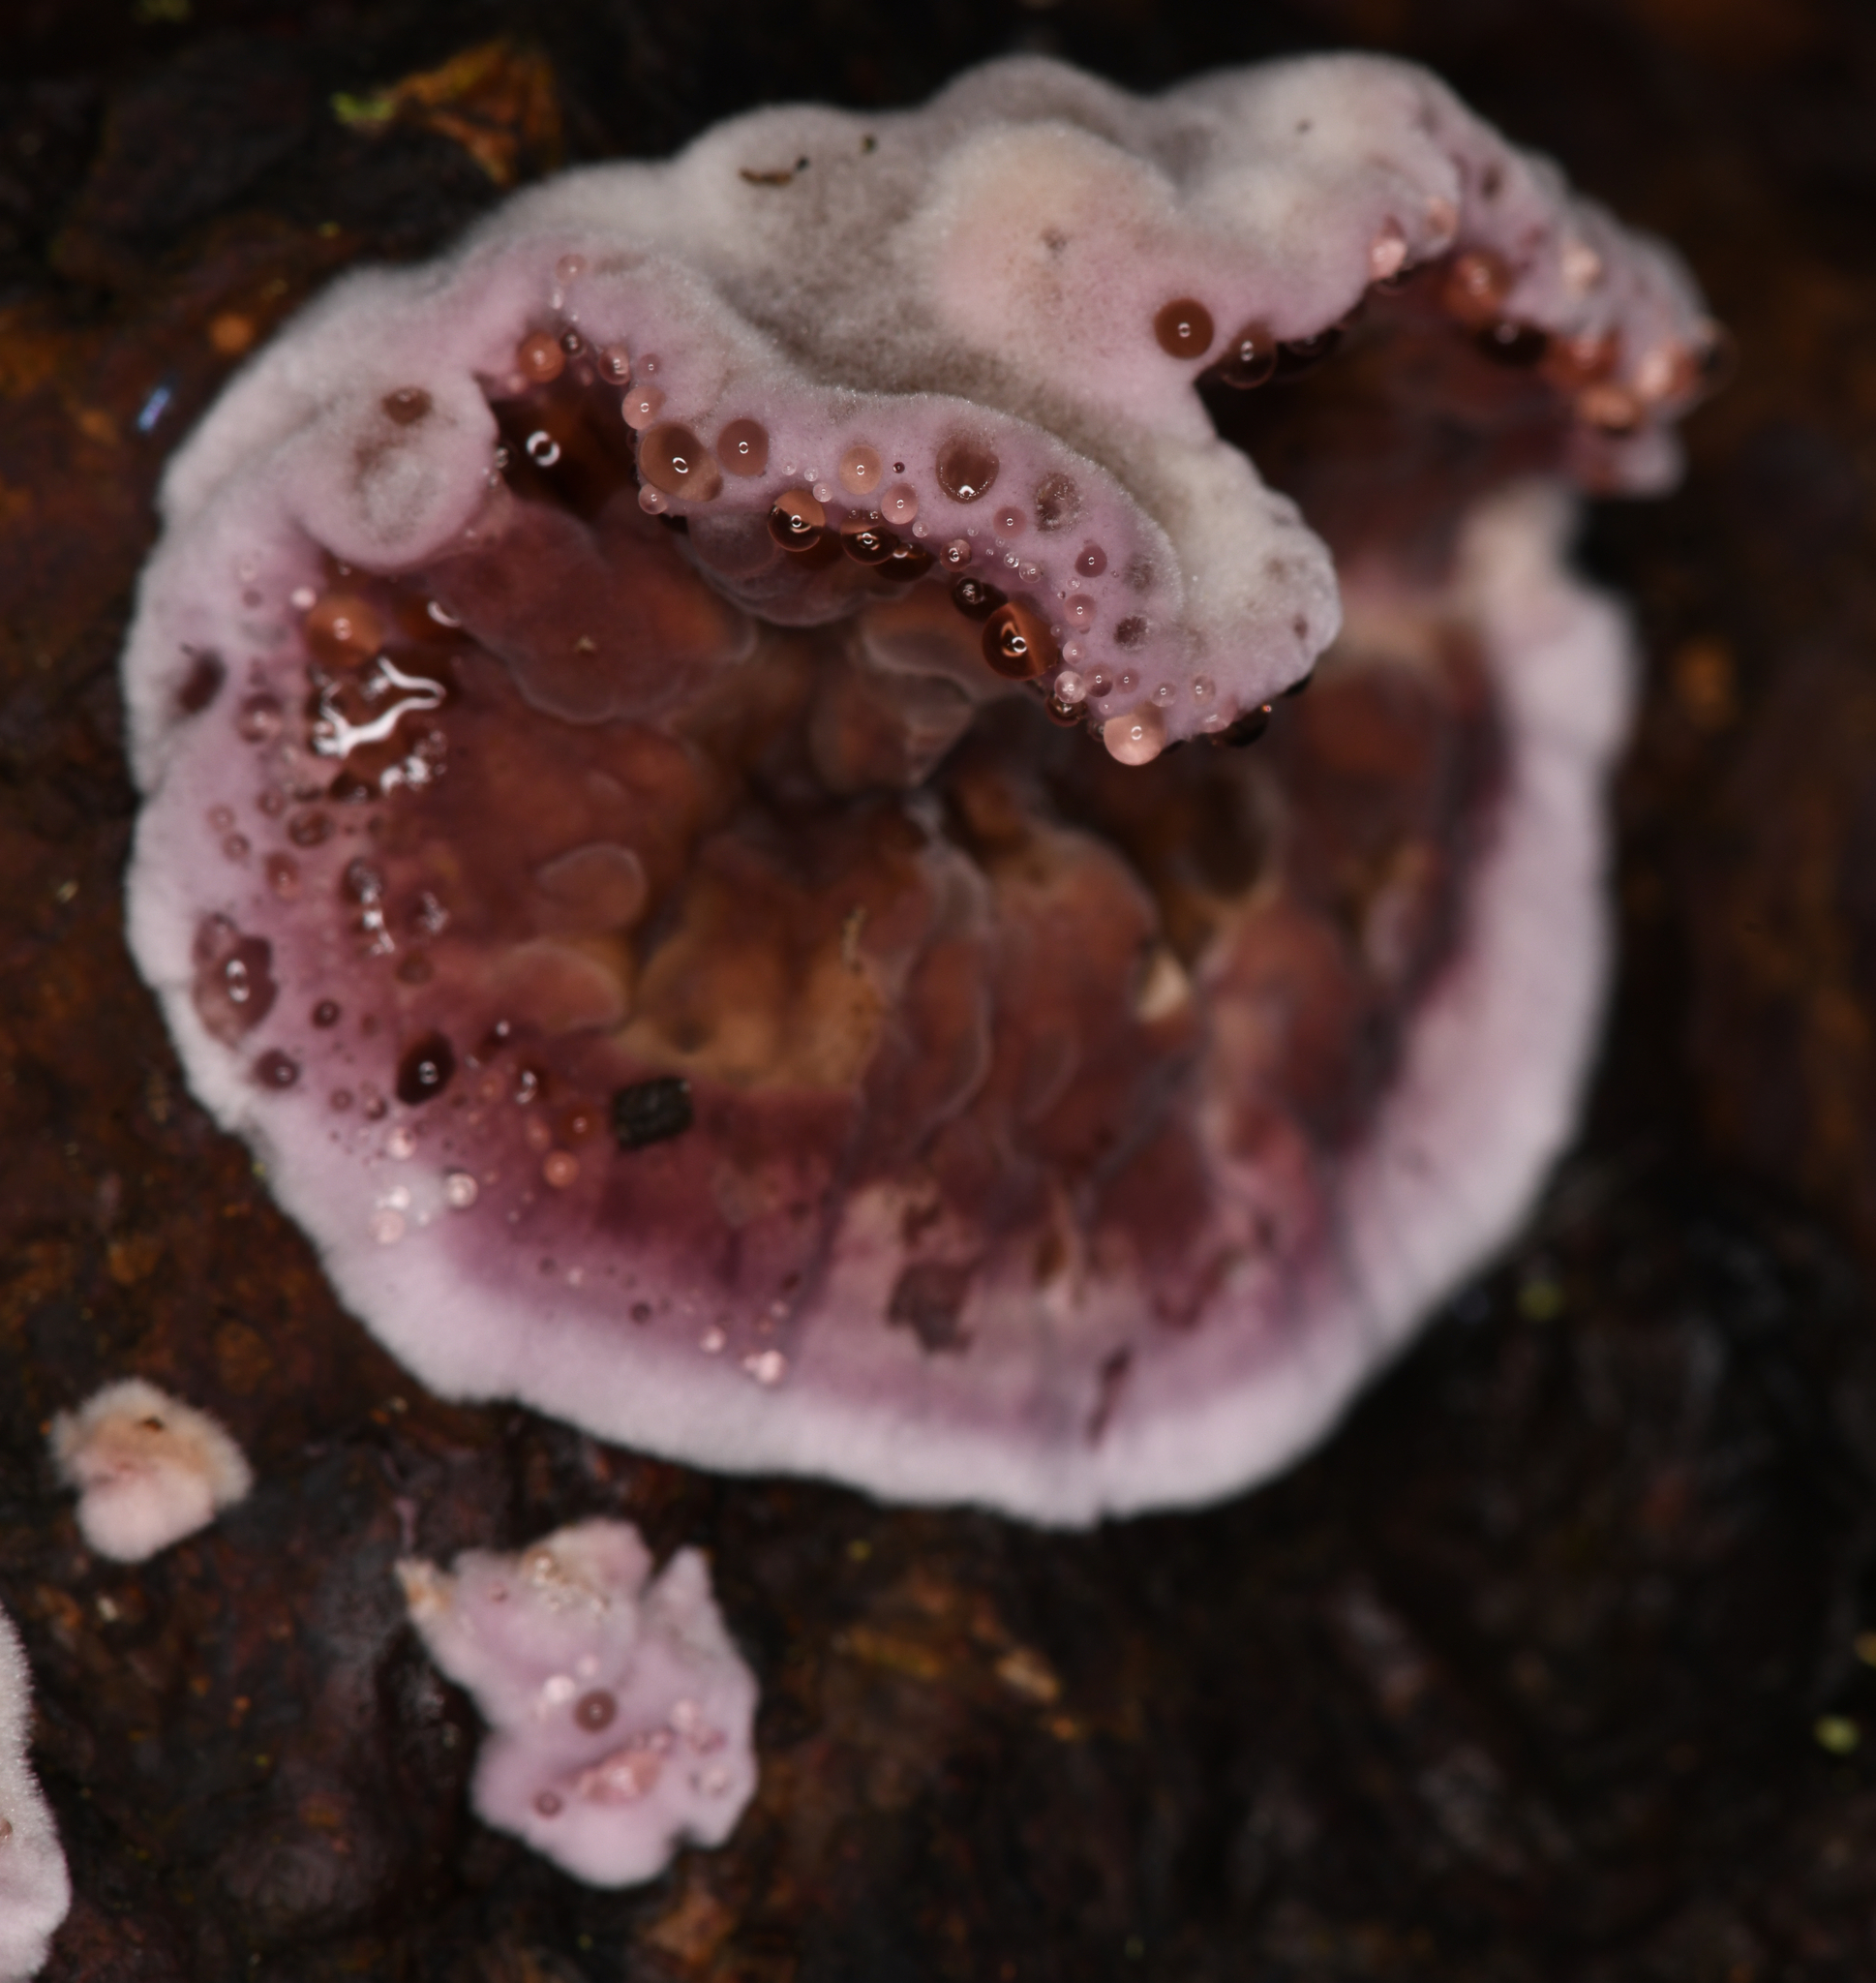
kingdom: Fungi
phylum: Basidiomycota
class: Agaricomycetes
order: Agaricales
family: Cyphellaceae
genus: Chondrostereum
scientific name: Chondrostereum purpureum
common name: Silver leaf disease
